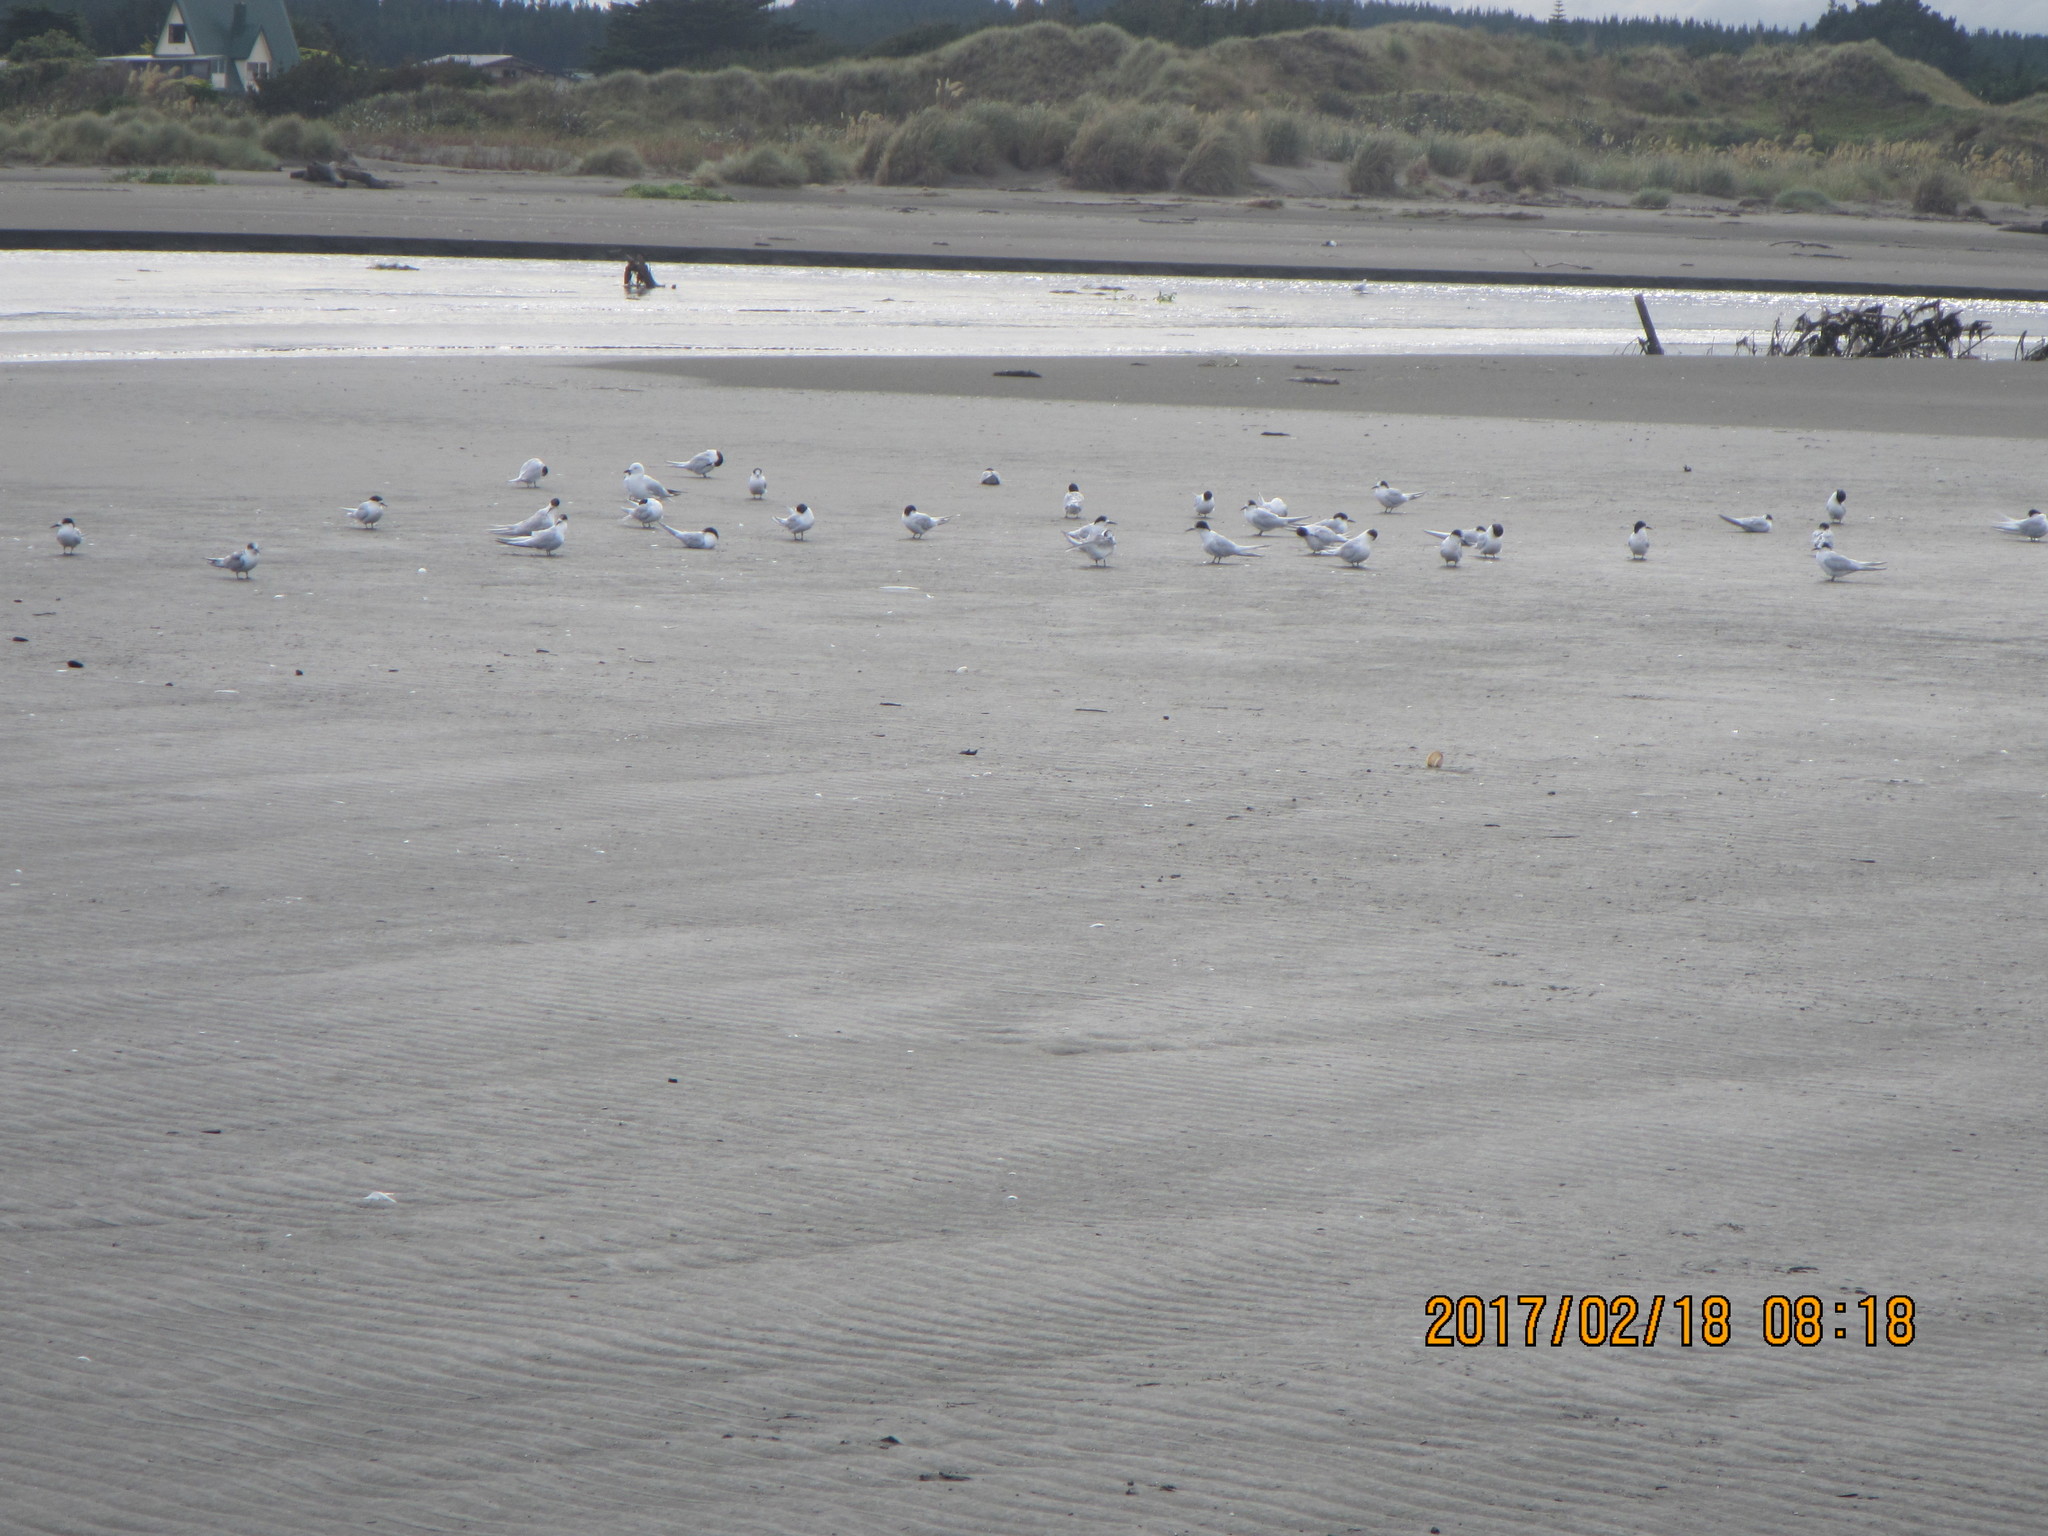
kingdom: Animalia
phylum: Chordata
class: Aves
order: Charadriiformes
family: Laridae
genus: Sterna
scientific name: Sterna striata
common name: White-fronted tern
